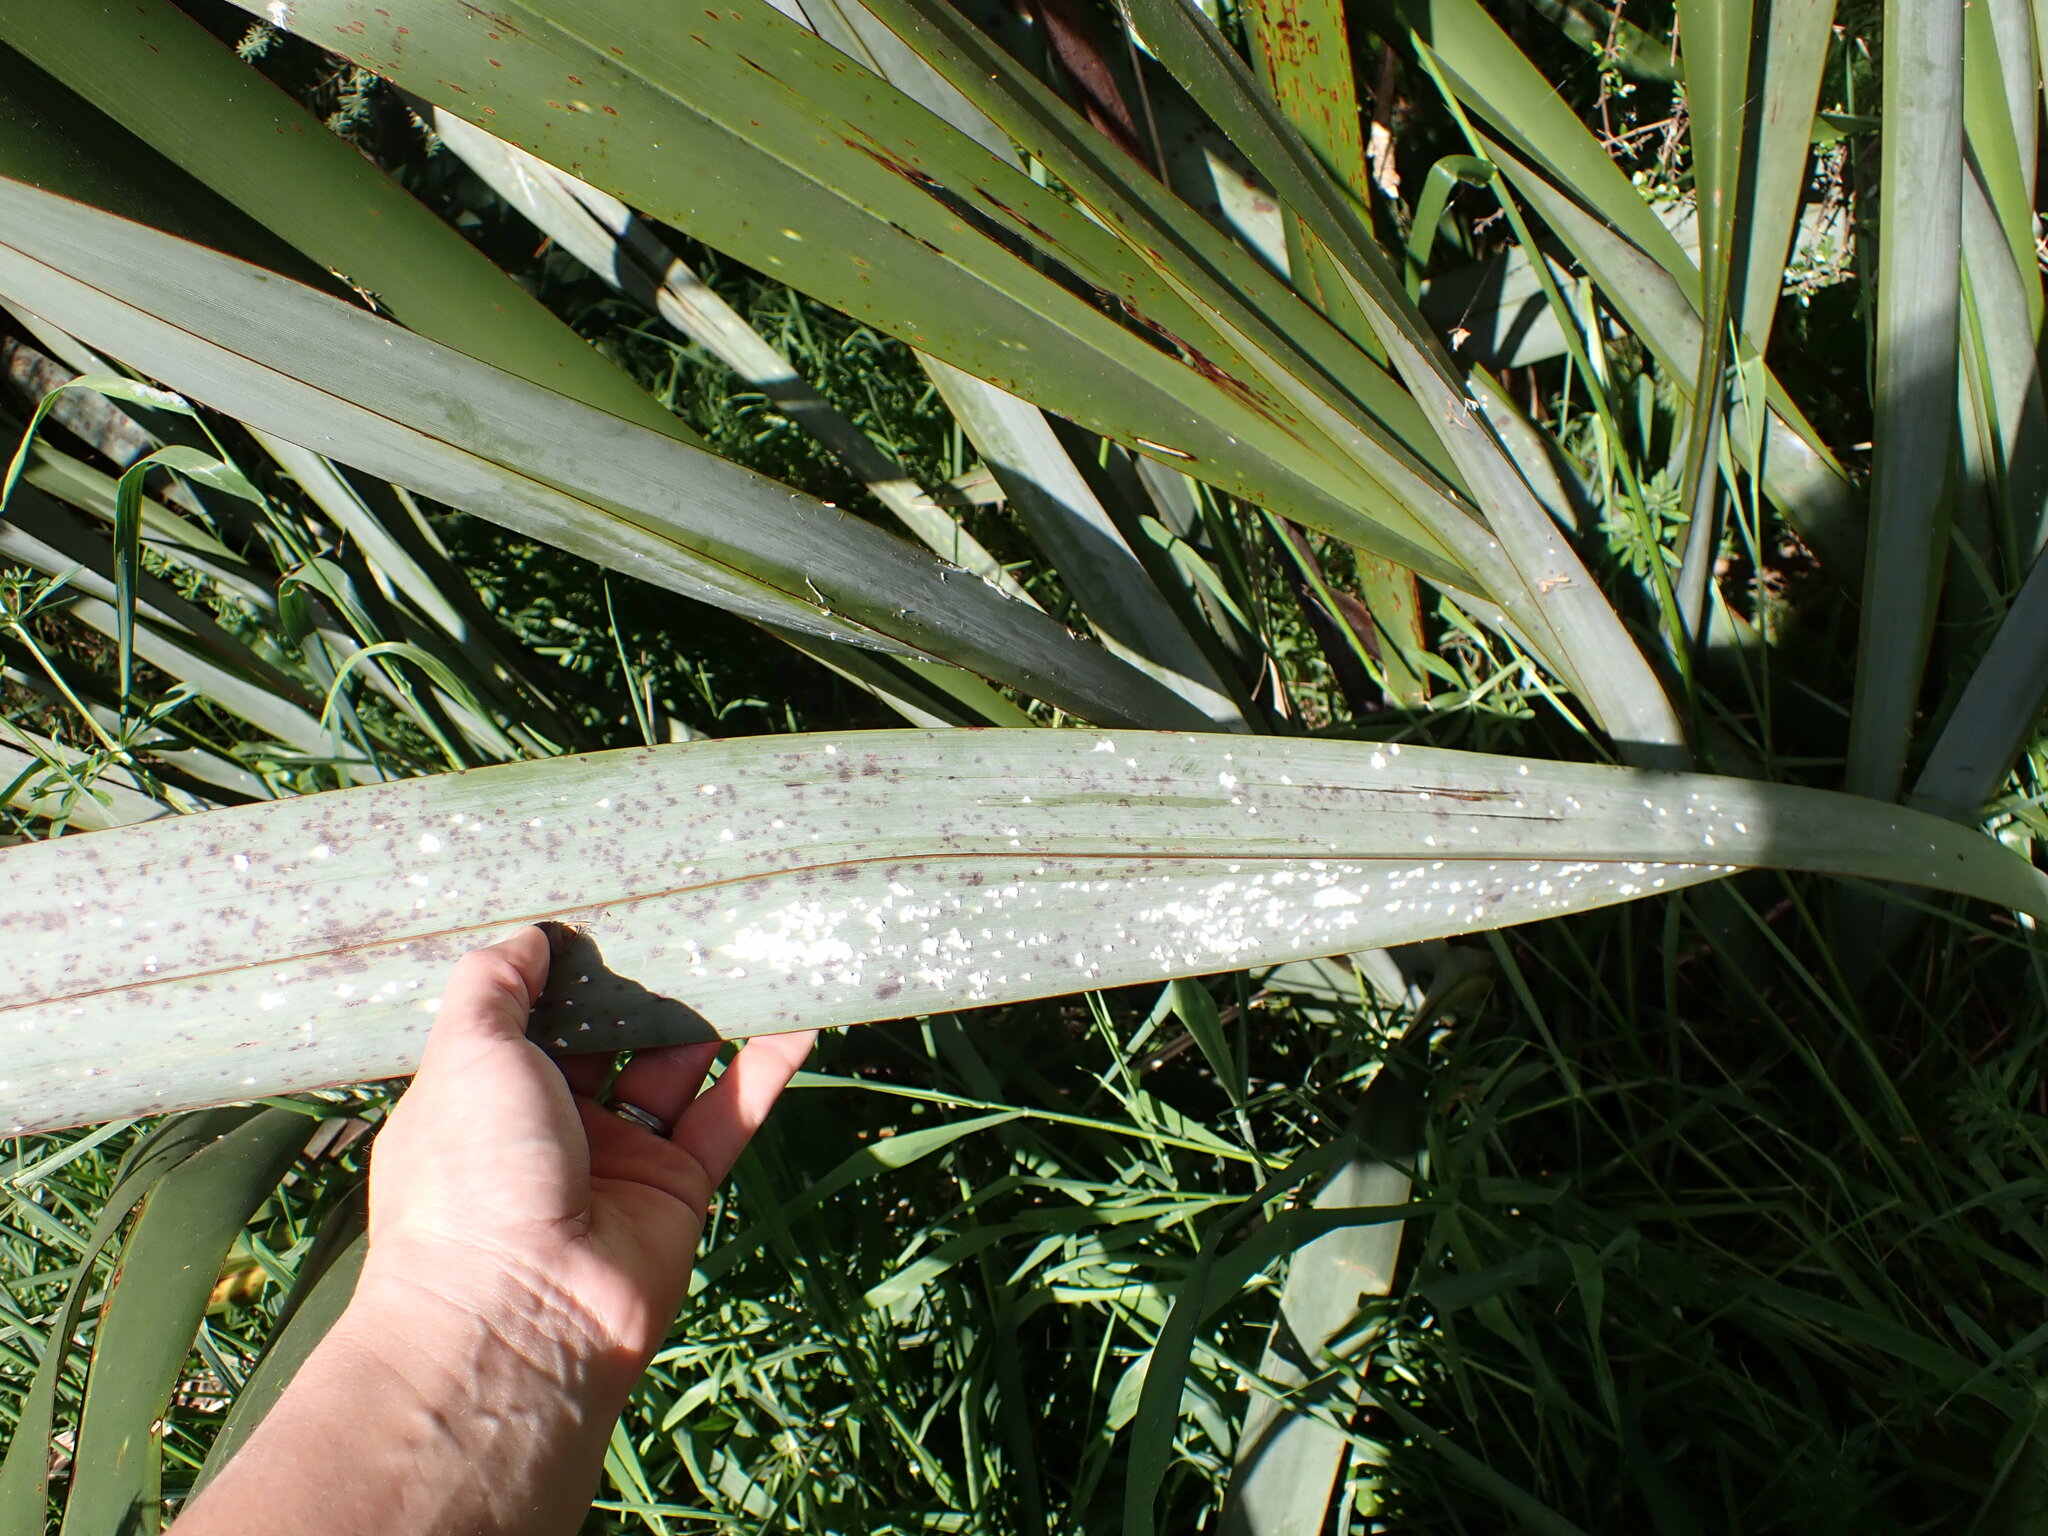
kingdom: Animalia
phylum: Arthropoda
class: Insecta
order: Hemiptera
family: Diaspididae
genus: Poliaspis
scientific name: Poliaspis floccosa
